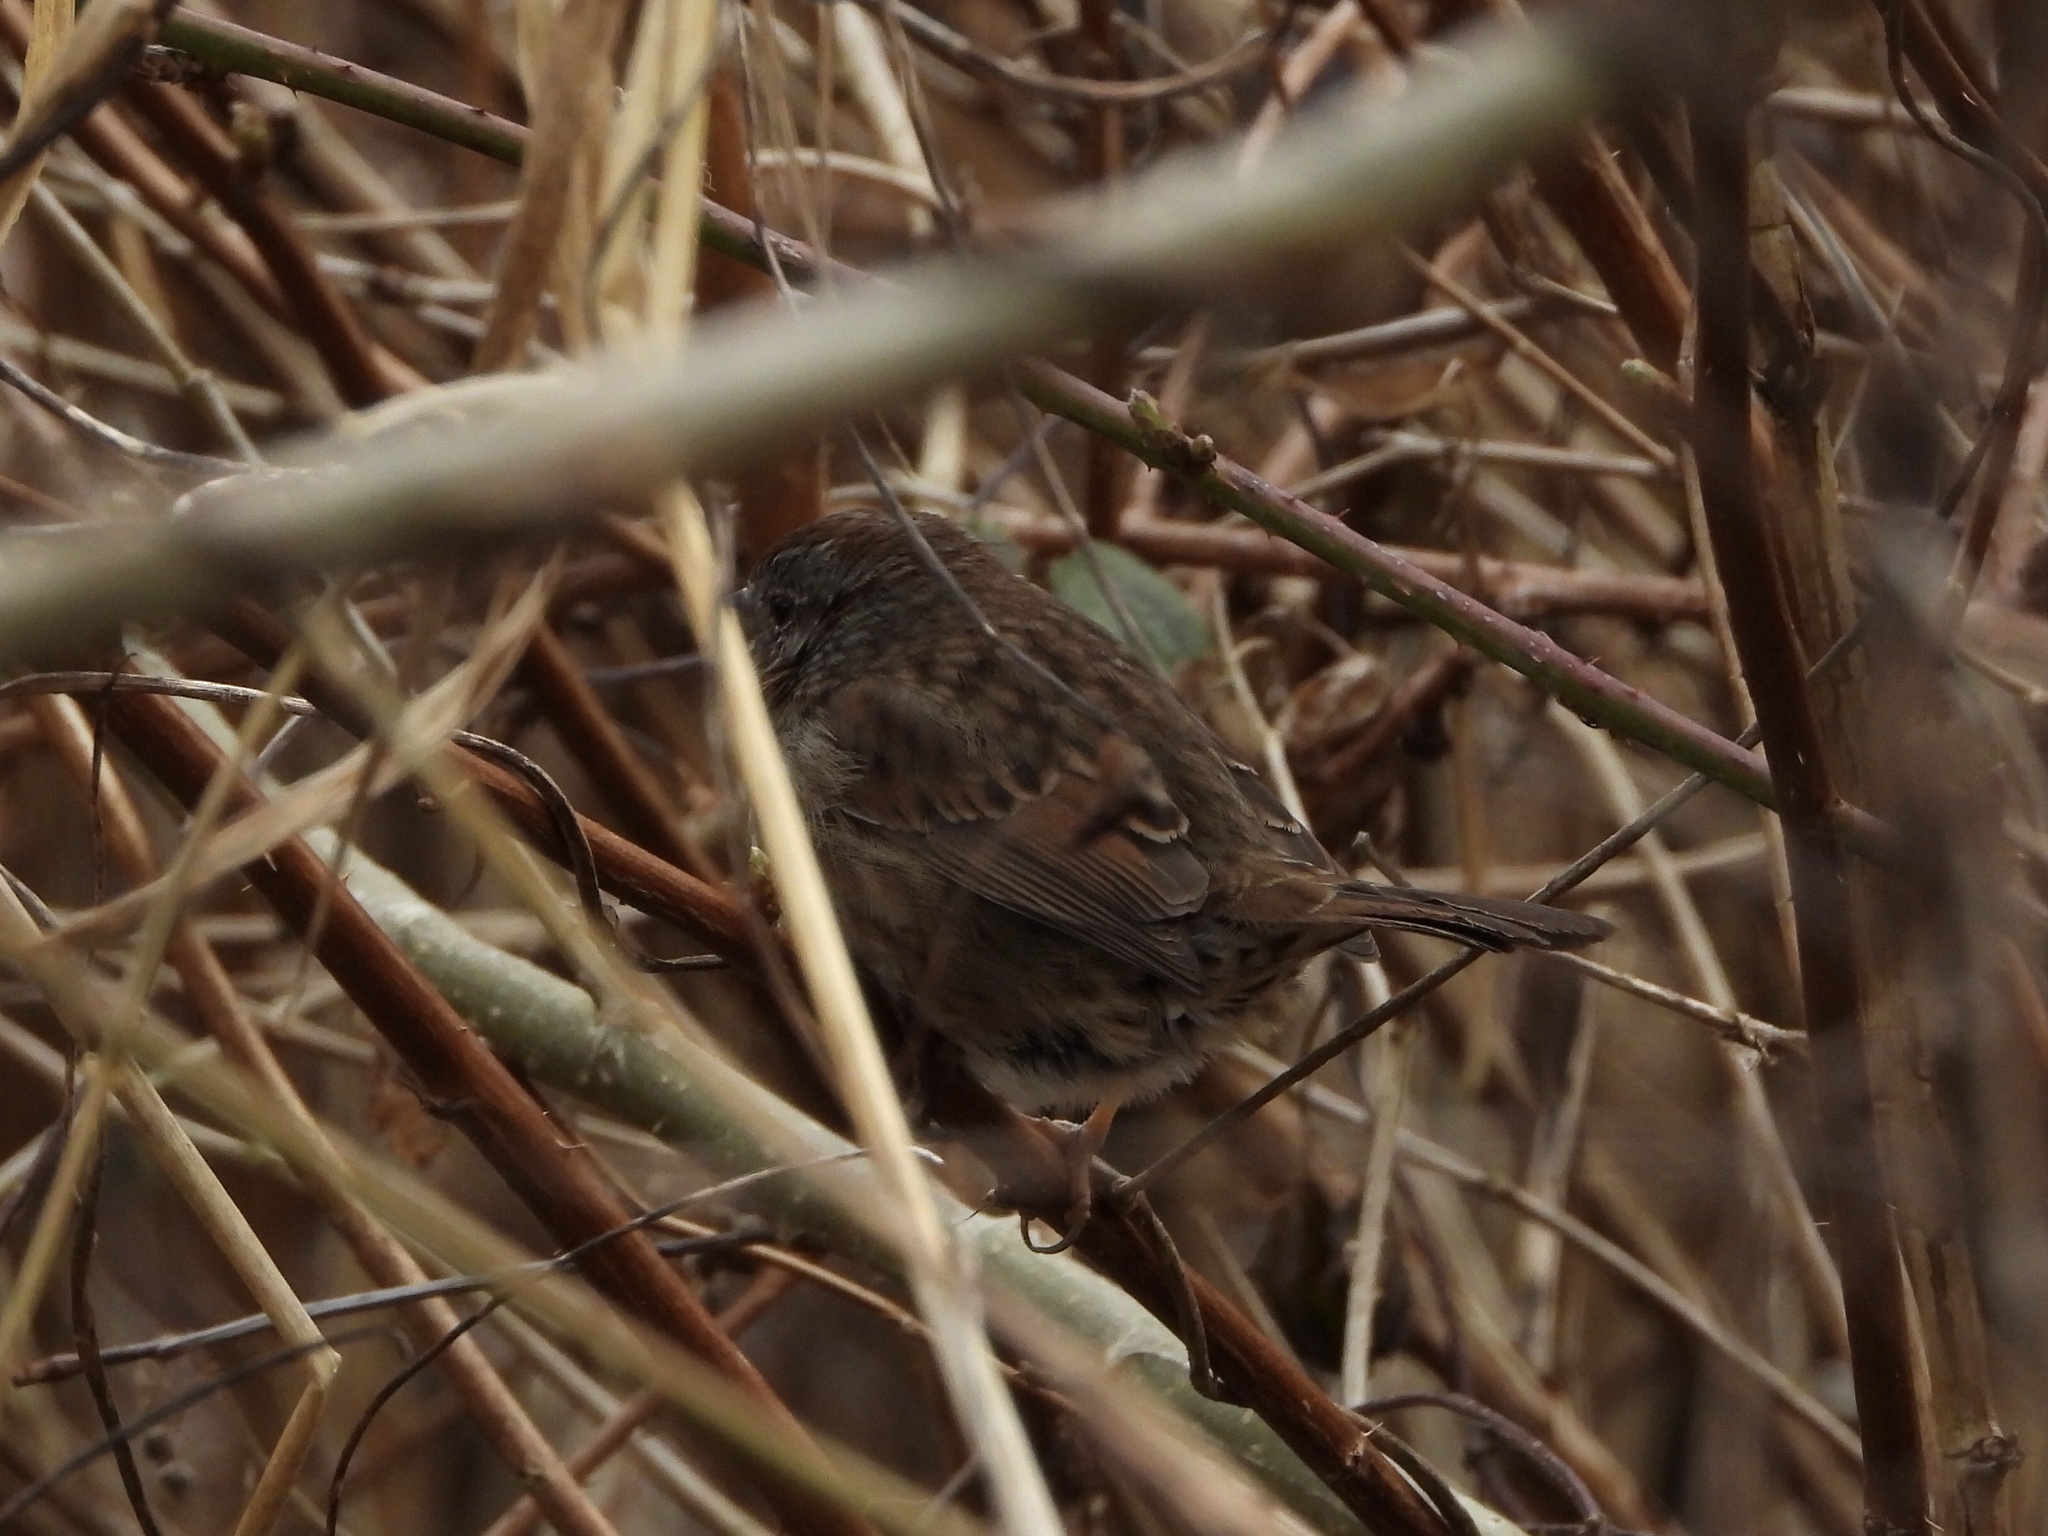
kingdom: Animalia
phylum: Chordata
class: Aves
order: Passeriformes
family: Passerellidae
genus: Melospiza
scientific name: Melospiza melodia
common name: Song sparrow
